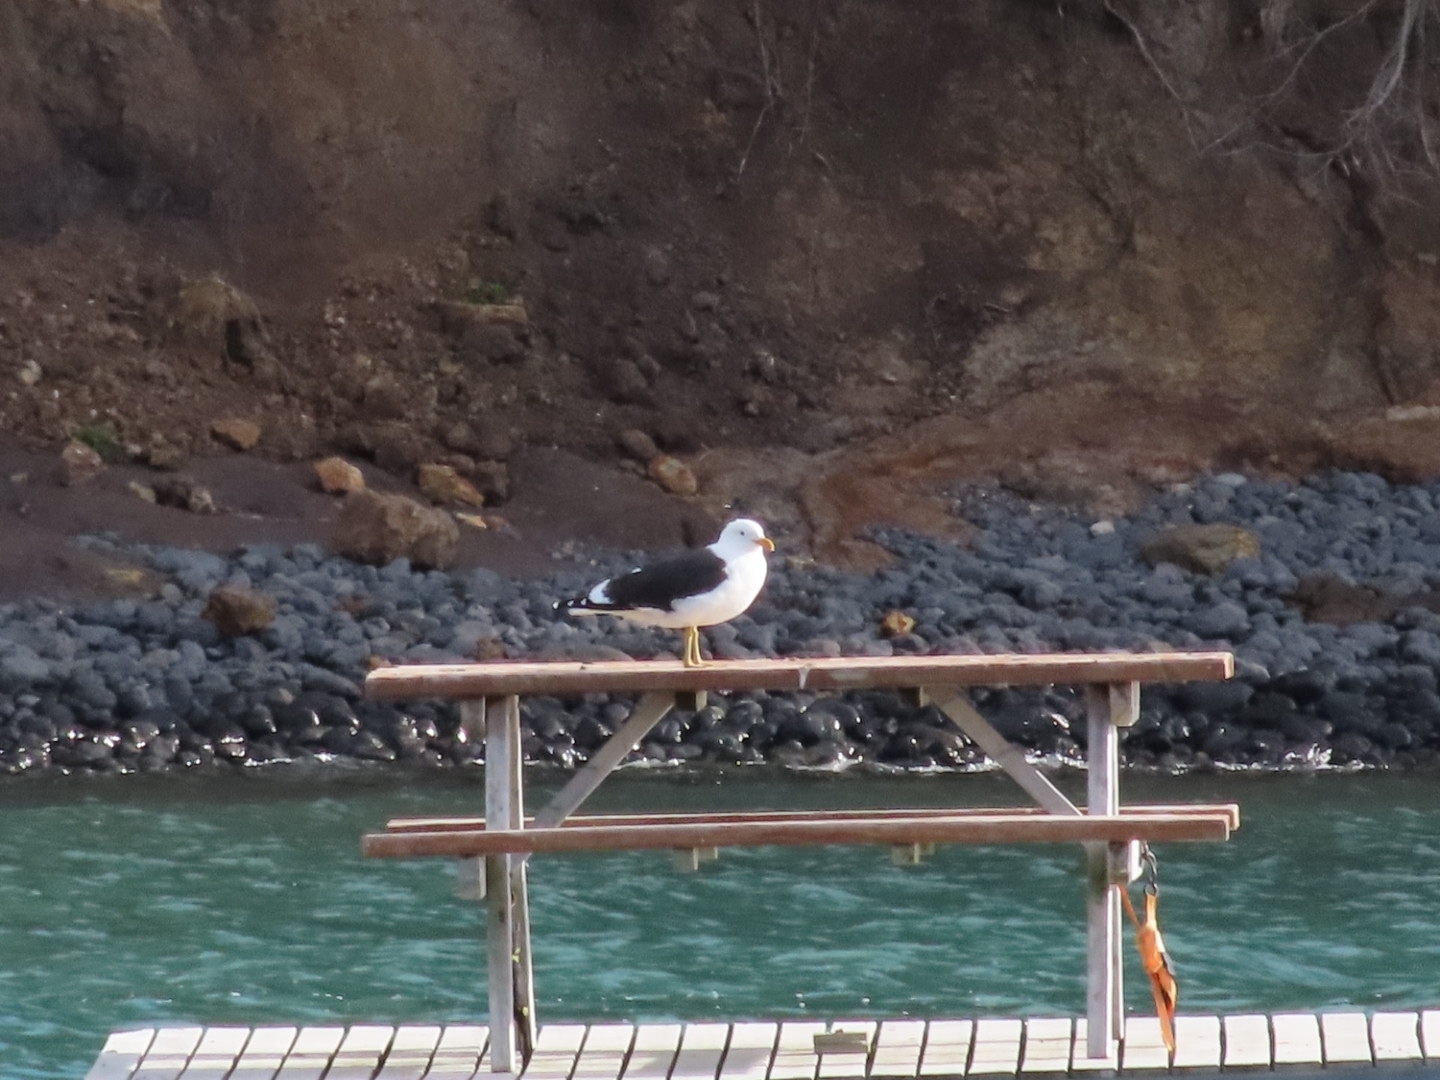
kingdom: Animalia
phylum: Chordata
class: Aves
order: Charadriiformes
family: Laridae
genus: Larus
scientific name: Larus dominicanus
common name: Kelp gull
